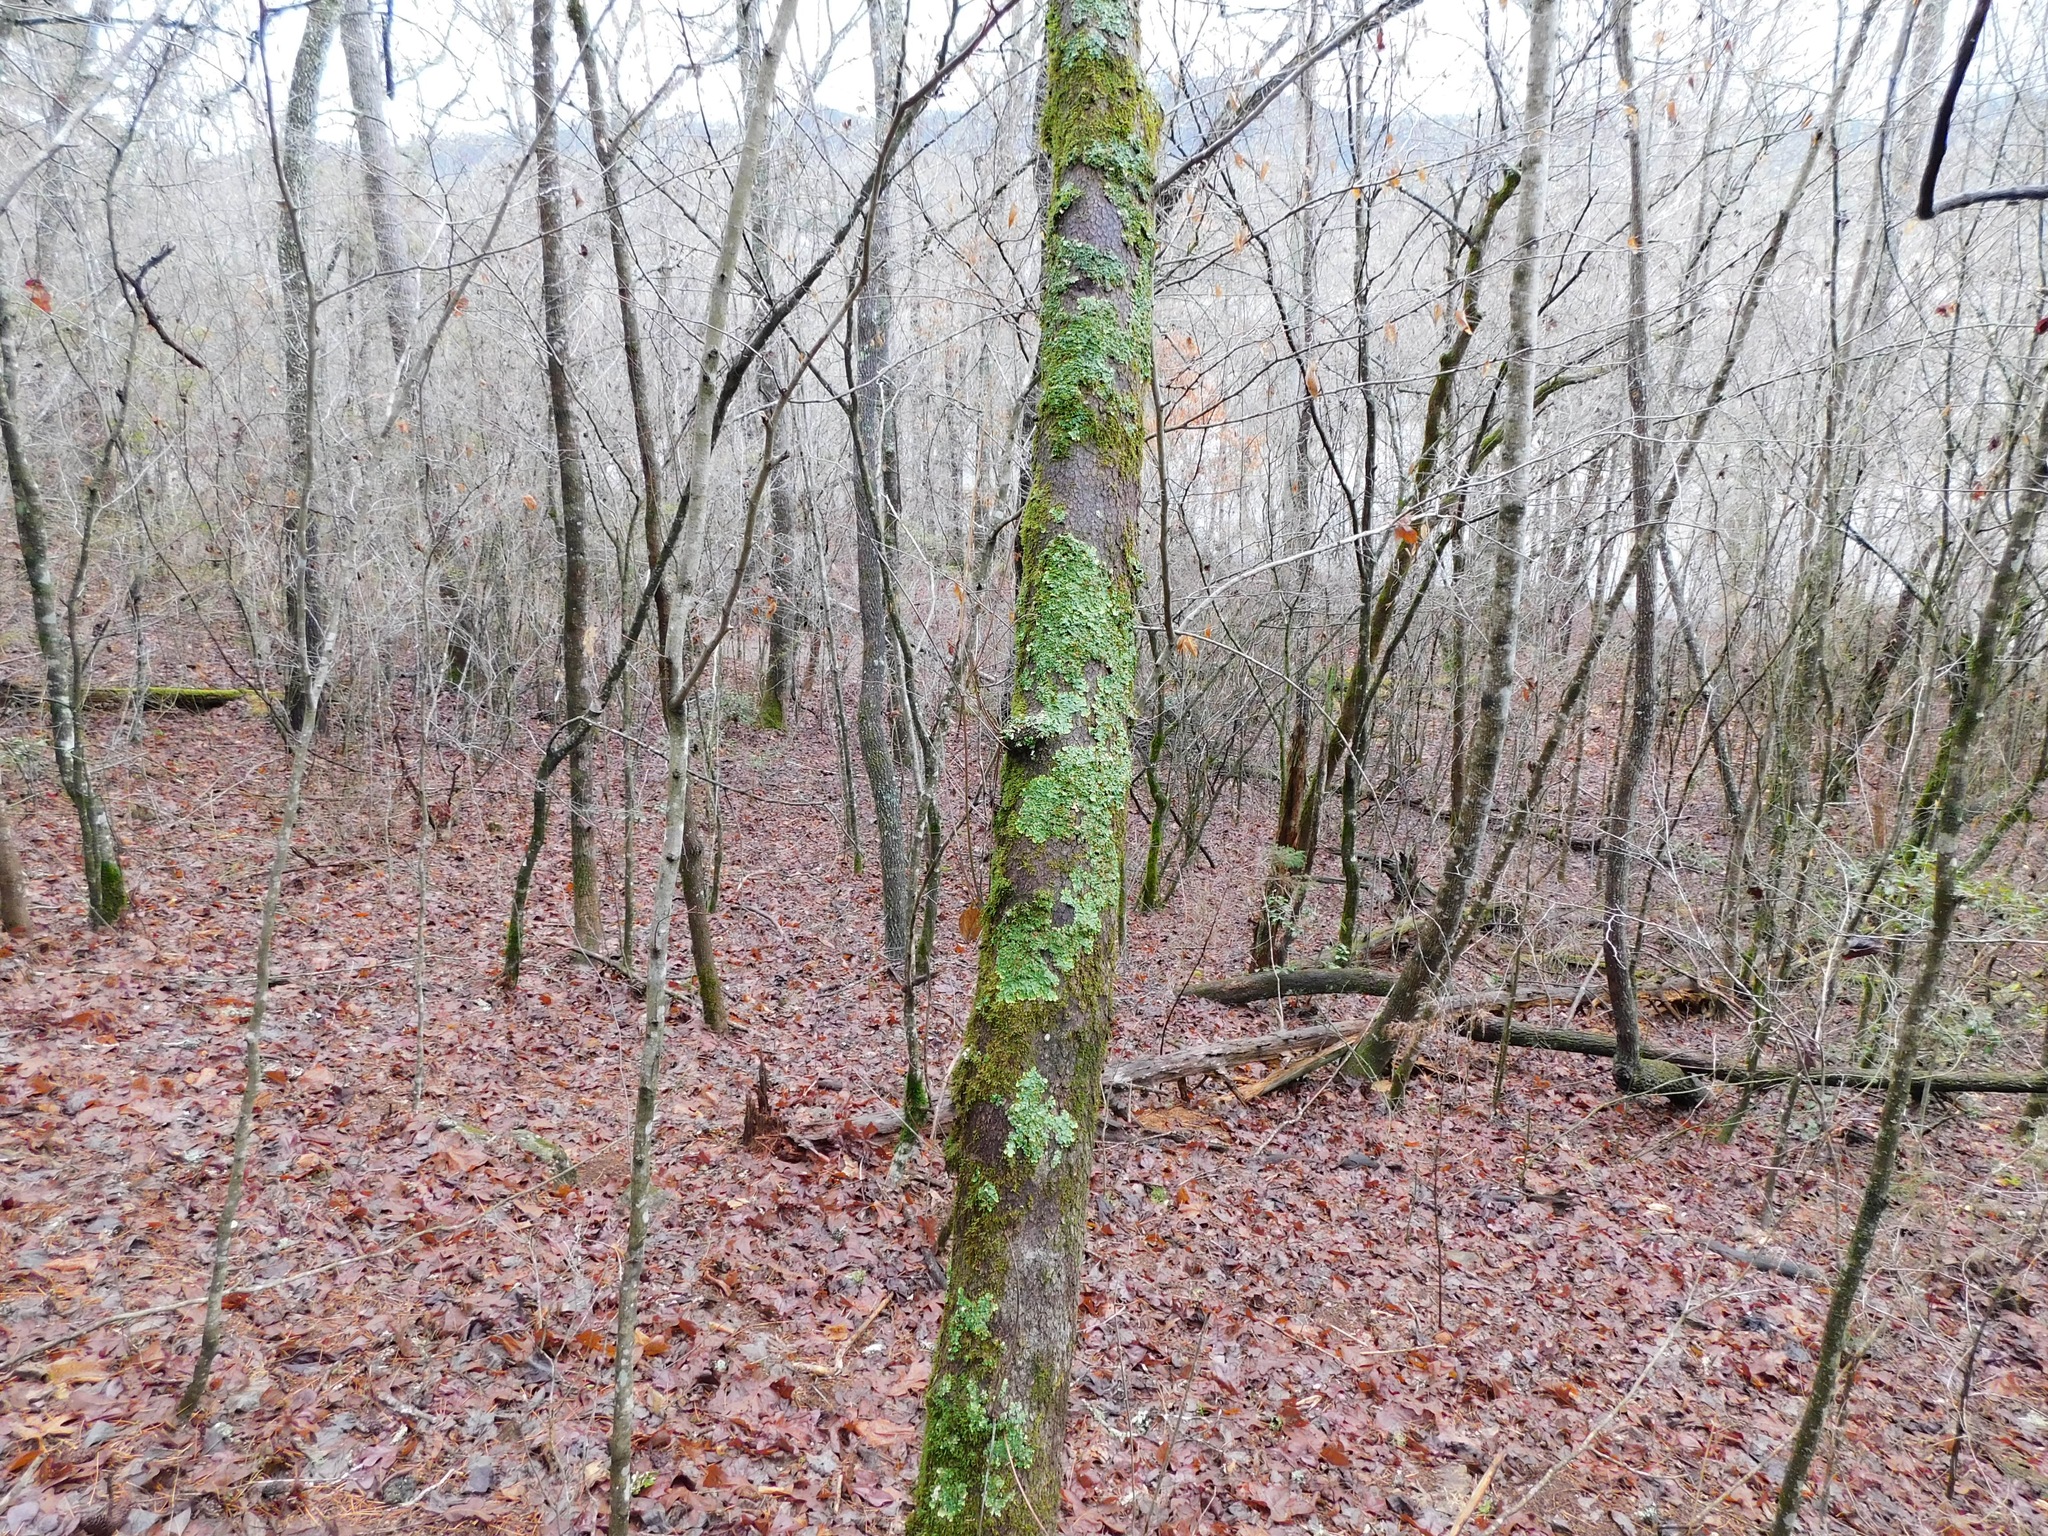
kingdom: Fungi
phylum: Ascomycota
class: Lecanoromycetes
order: Peltigerales
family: Lobariaceae
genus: Ricasolia
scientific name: Ricasolia quercizans
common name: Smooth lungwort
